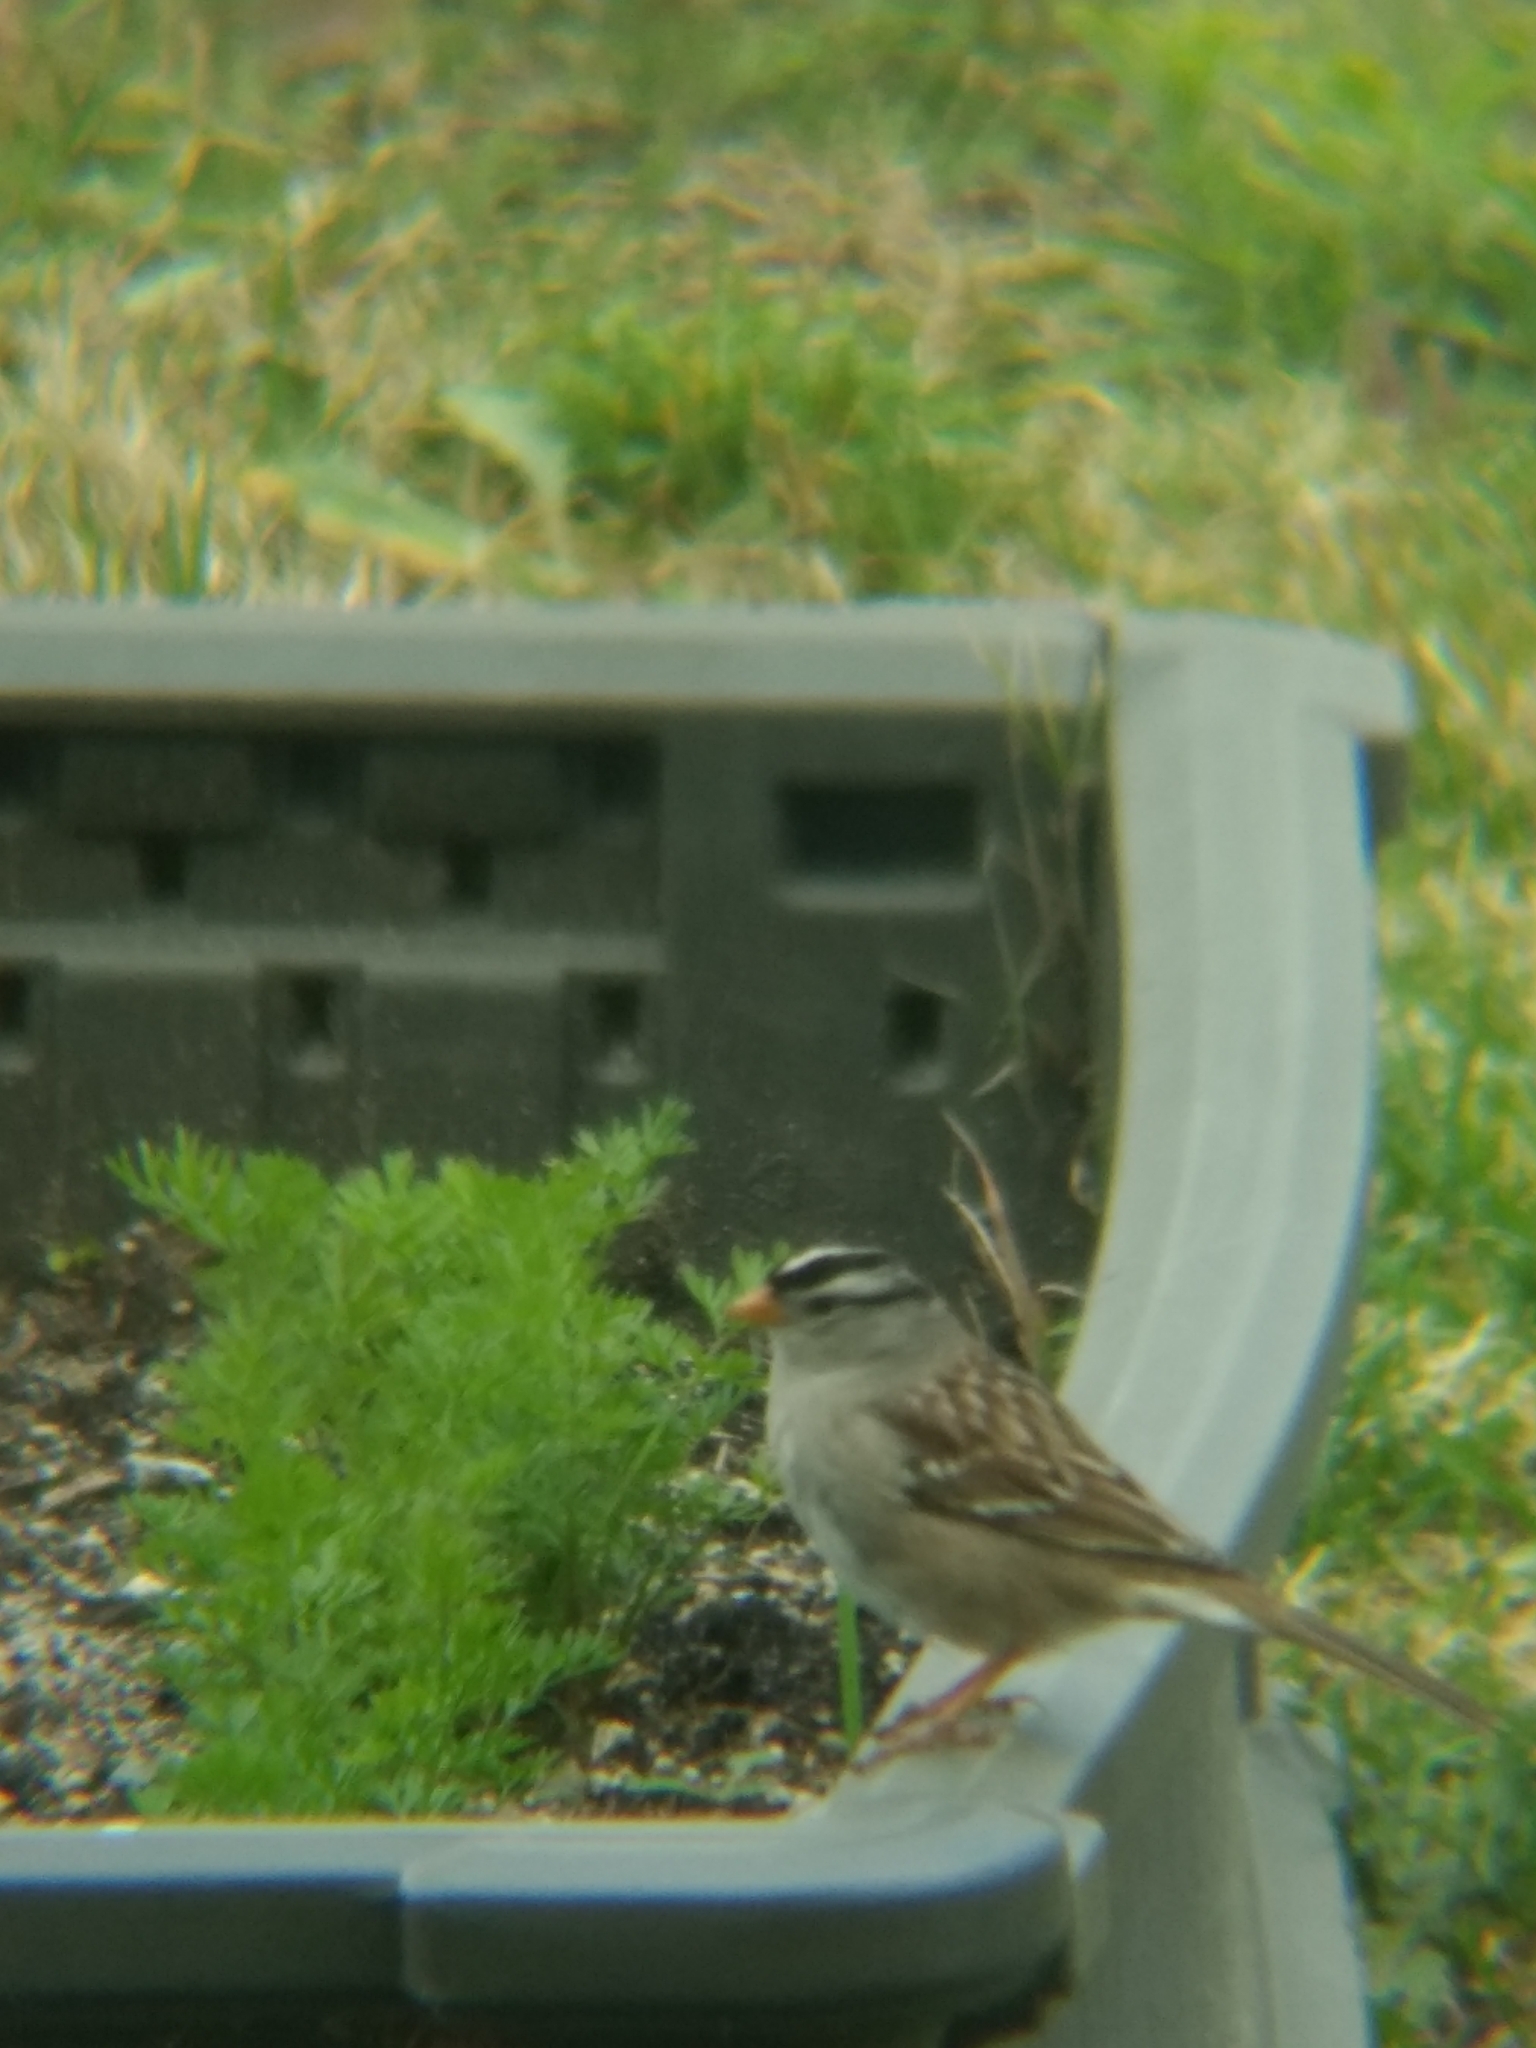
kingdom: Animalia
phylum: Chordata
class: Aves
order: Passeriformes
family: Passerellidae
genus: Zonotrichia
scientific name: Zonotrichia leucophrys
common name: White-crowned sparrow
